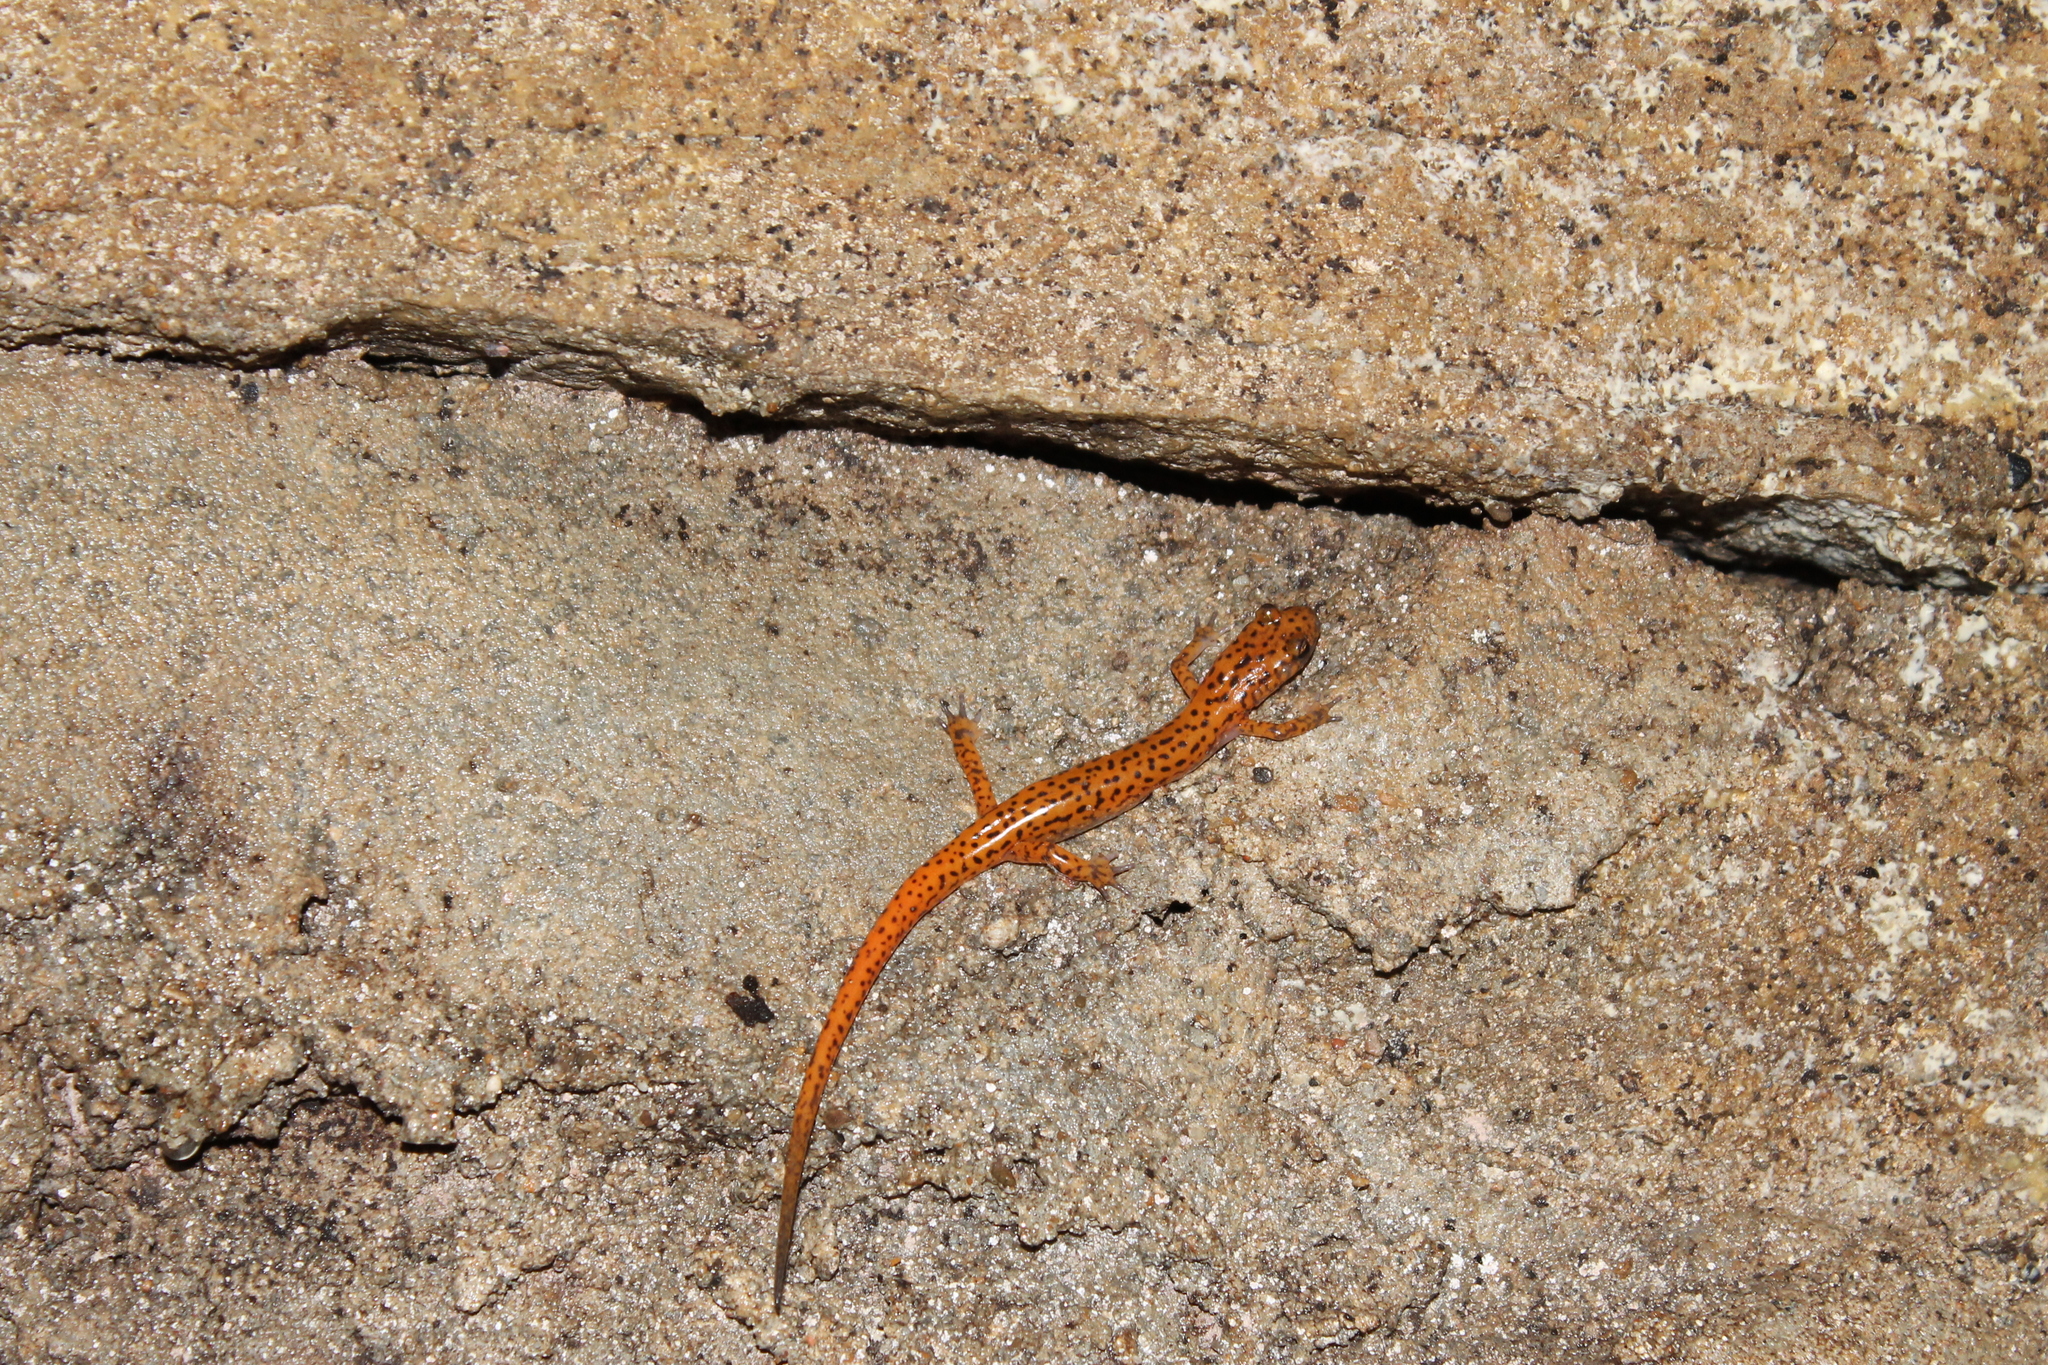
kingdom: Animalia
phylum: Chordata
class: Amphibia
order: Caudata
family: Plethodontidae
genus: Eurycea
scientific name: Eurycea lucifuga
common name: Cave salamander
